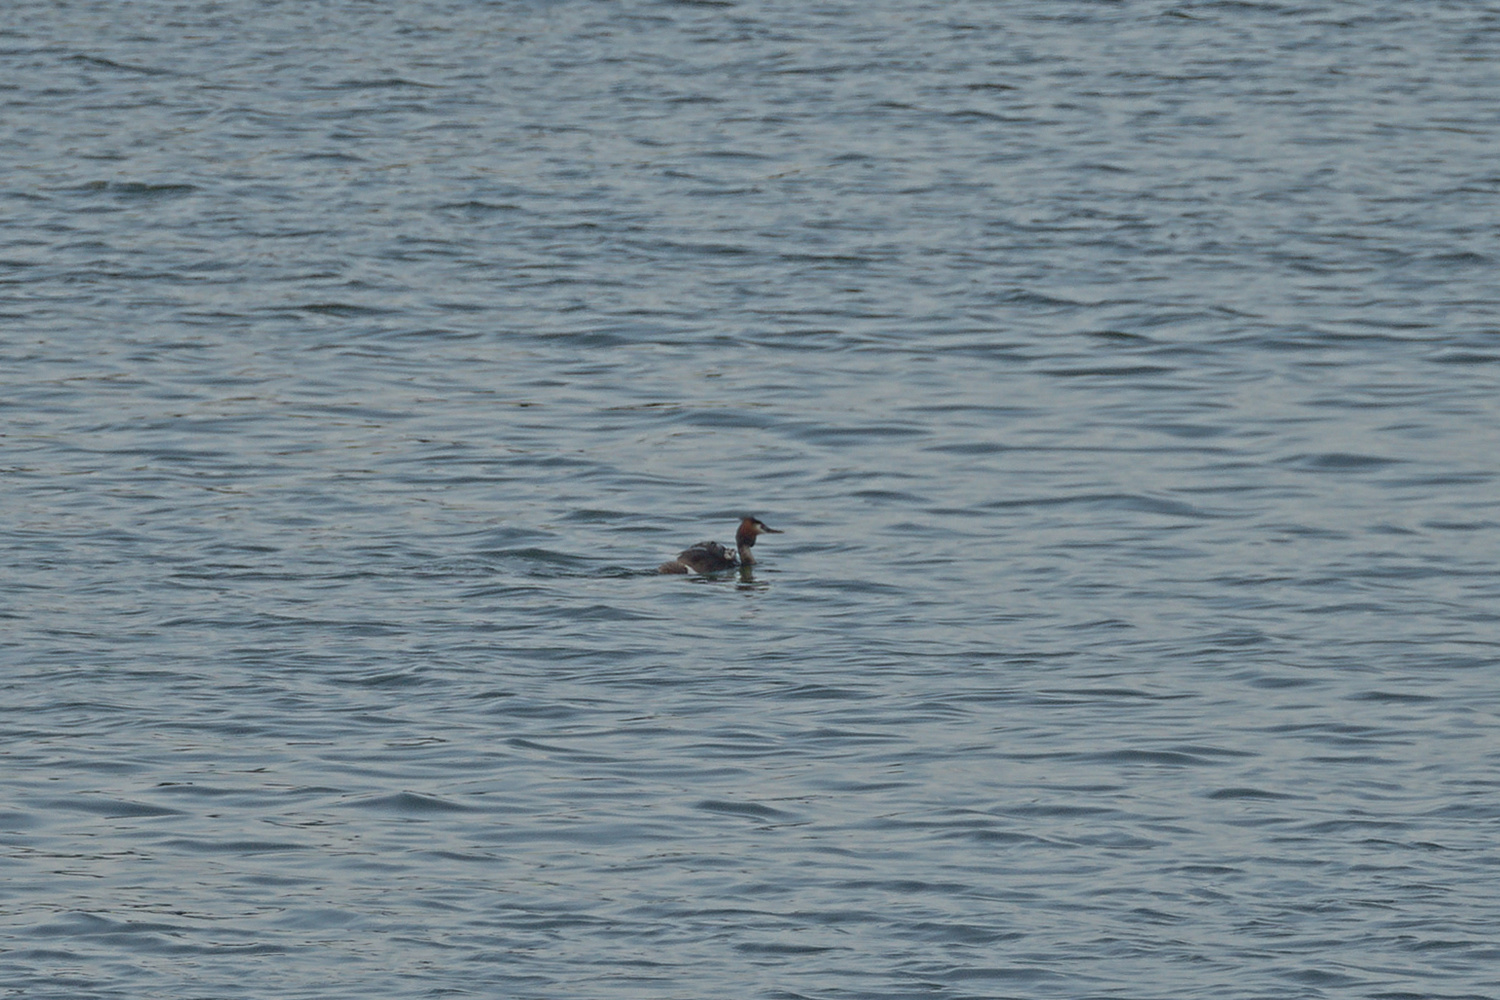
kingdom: Animalia
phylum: Chordata
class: Aves
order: Podicipediformes
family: Podicipedidae
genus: Podiceps
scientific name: Podiceps cristatus
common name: Great crested grebe
